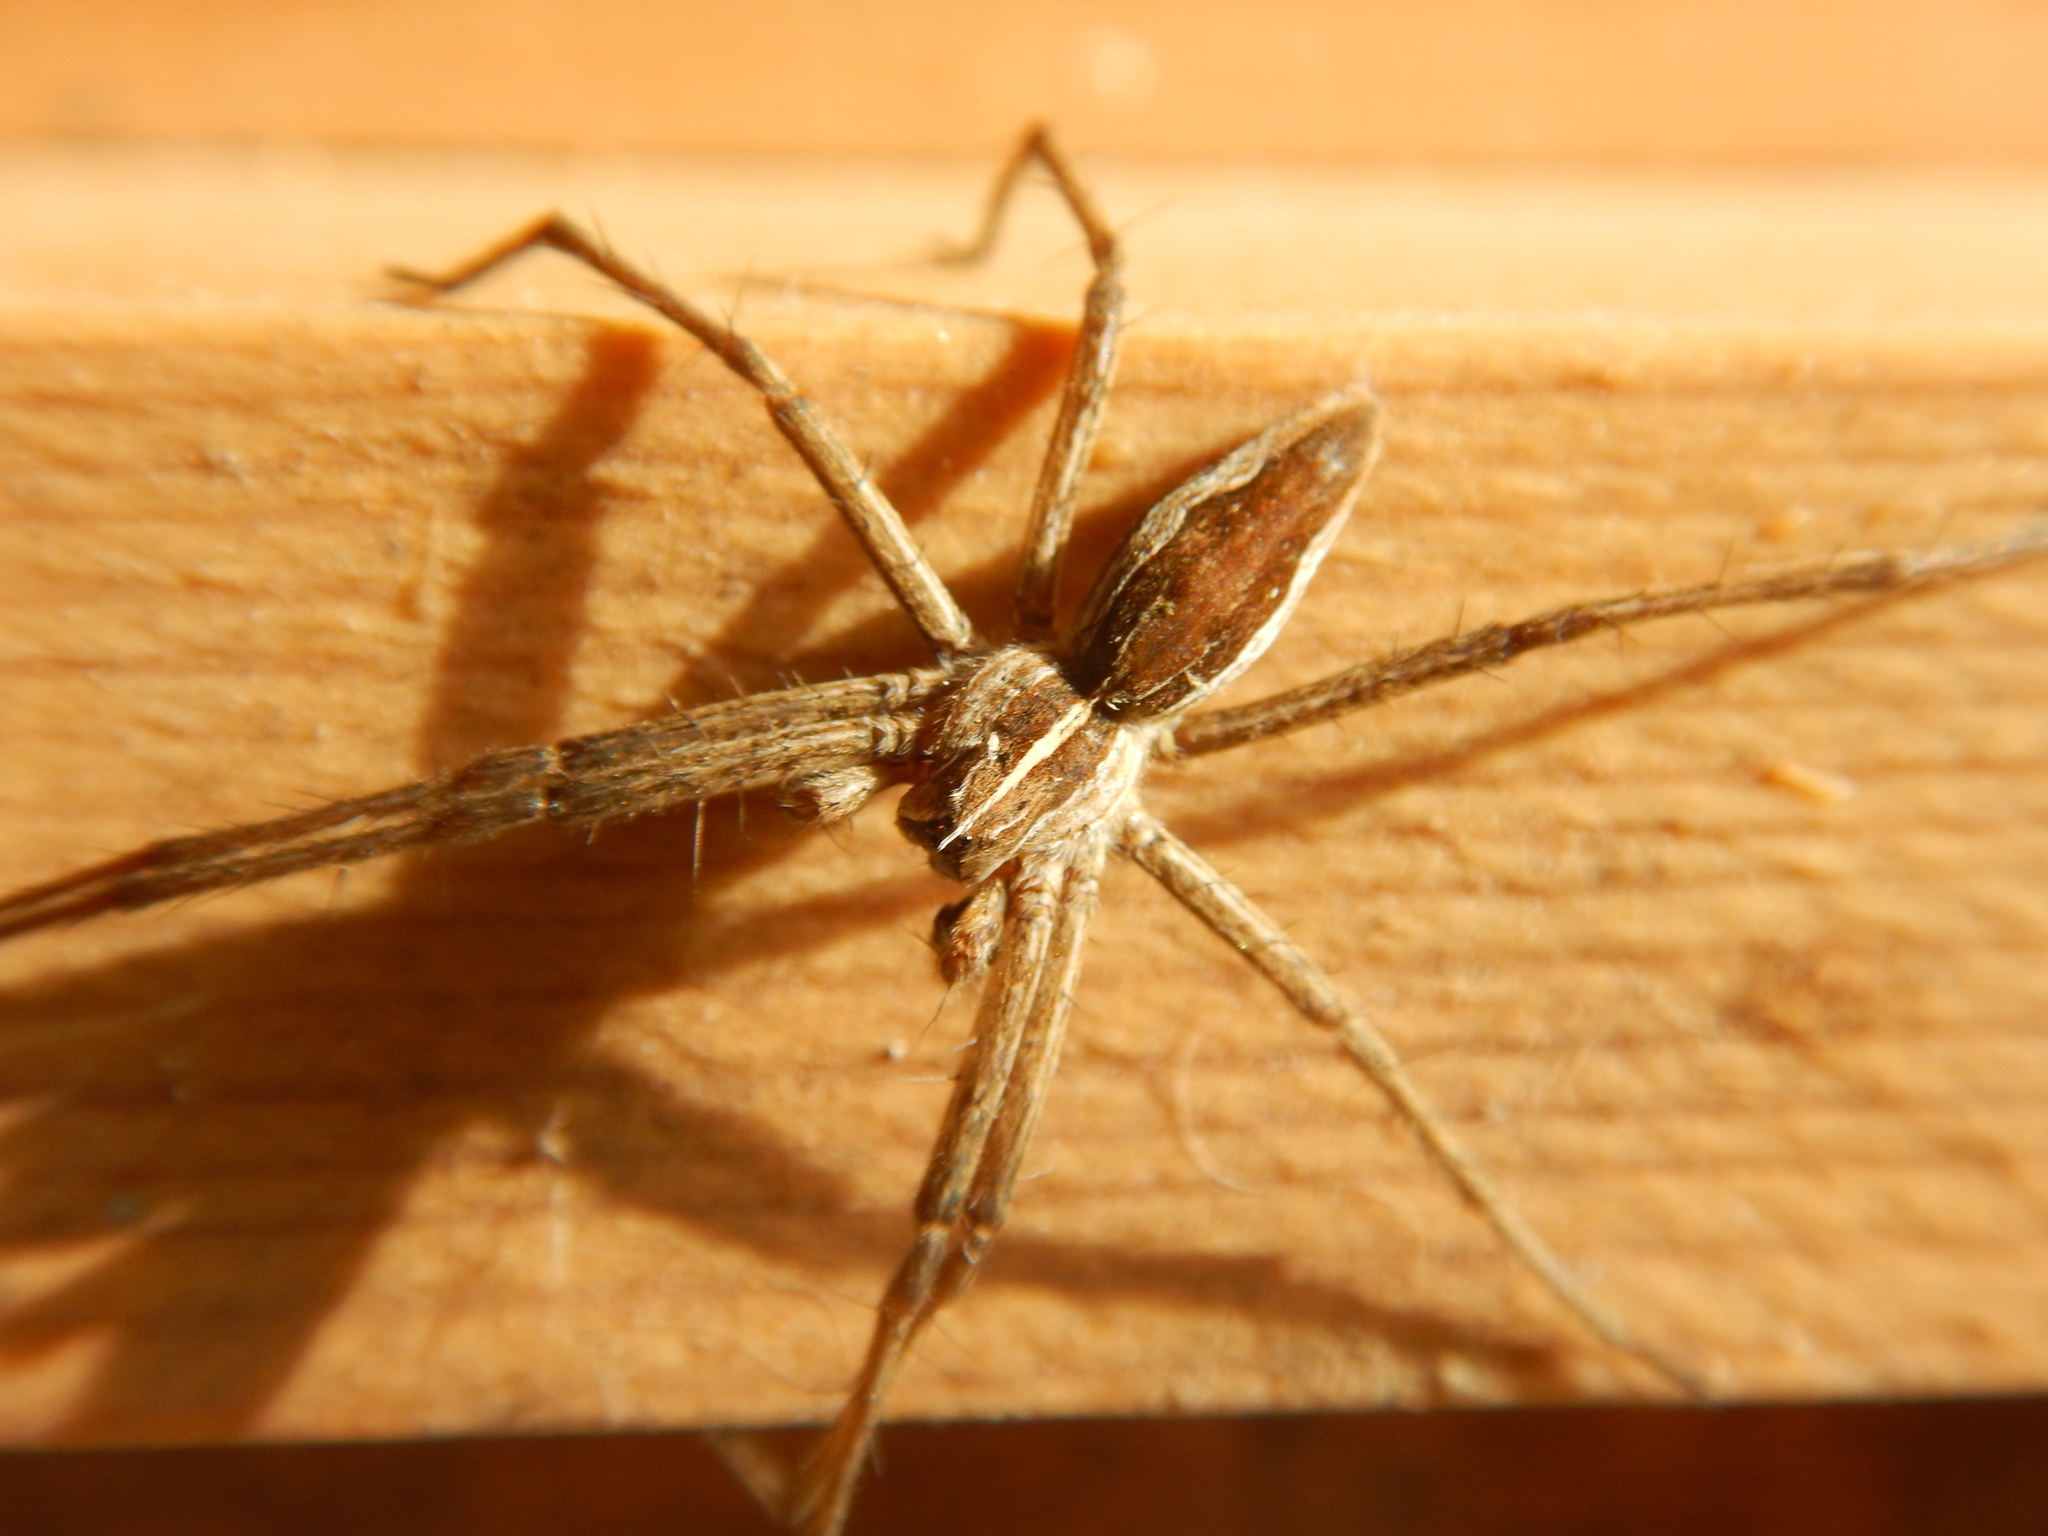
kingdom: Animalia
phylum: Arthropoda
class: Arachnida
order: Araneae
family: Pisauridae
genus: Pisaura
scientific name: Pisaura mirabilis
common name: Tent spider
